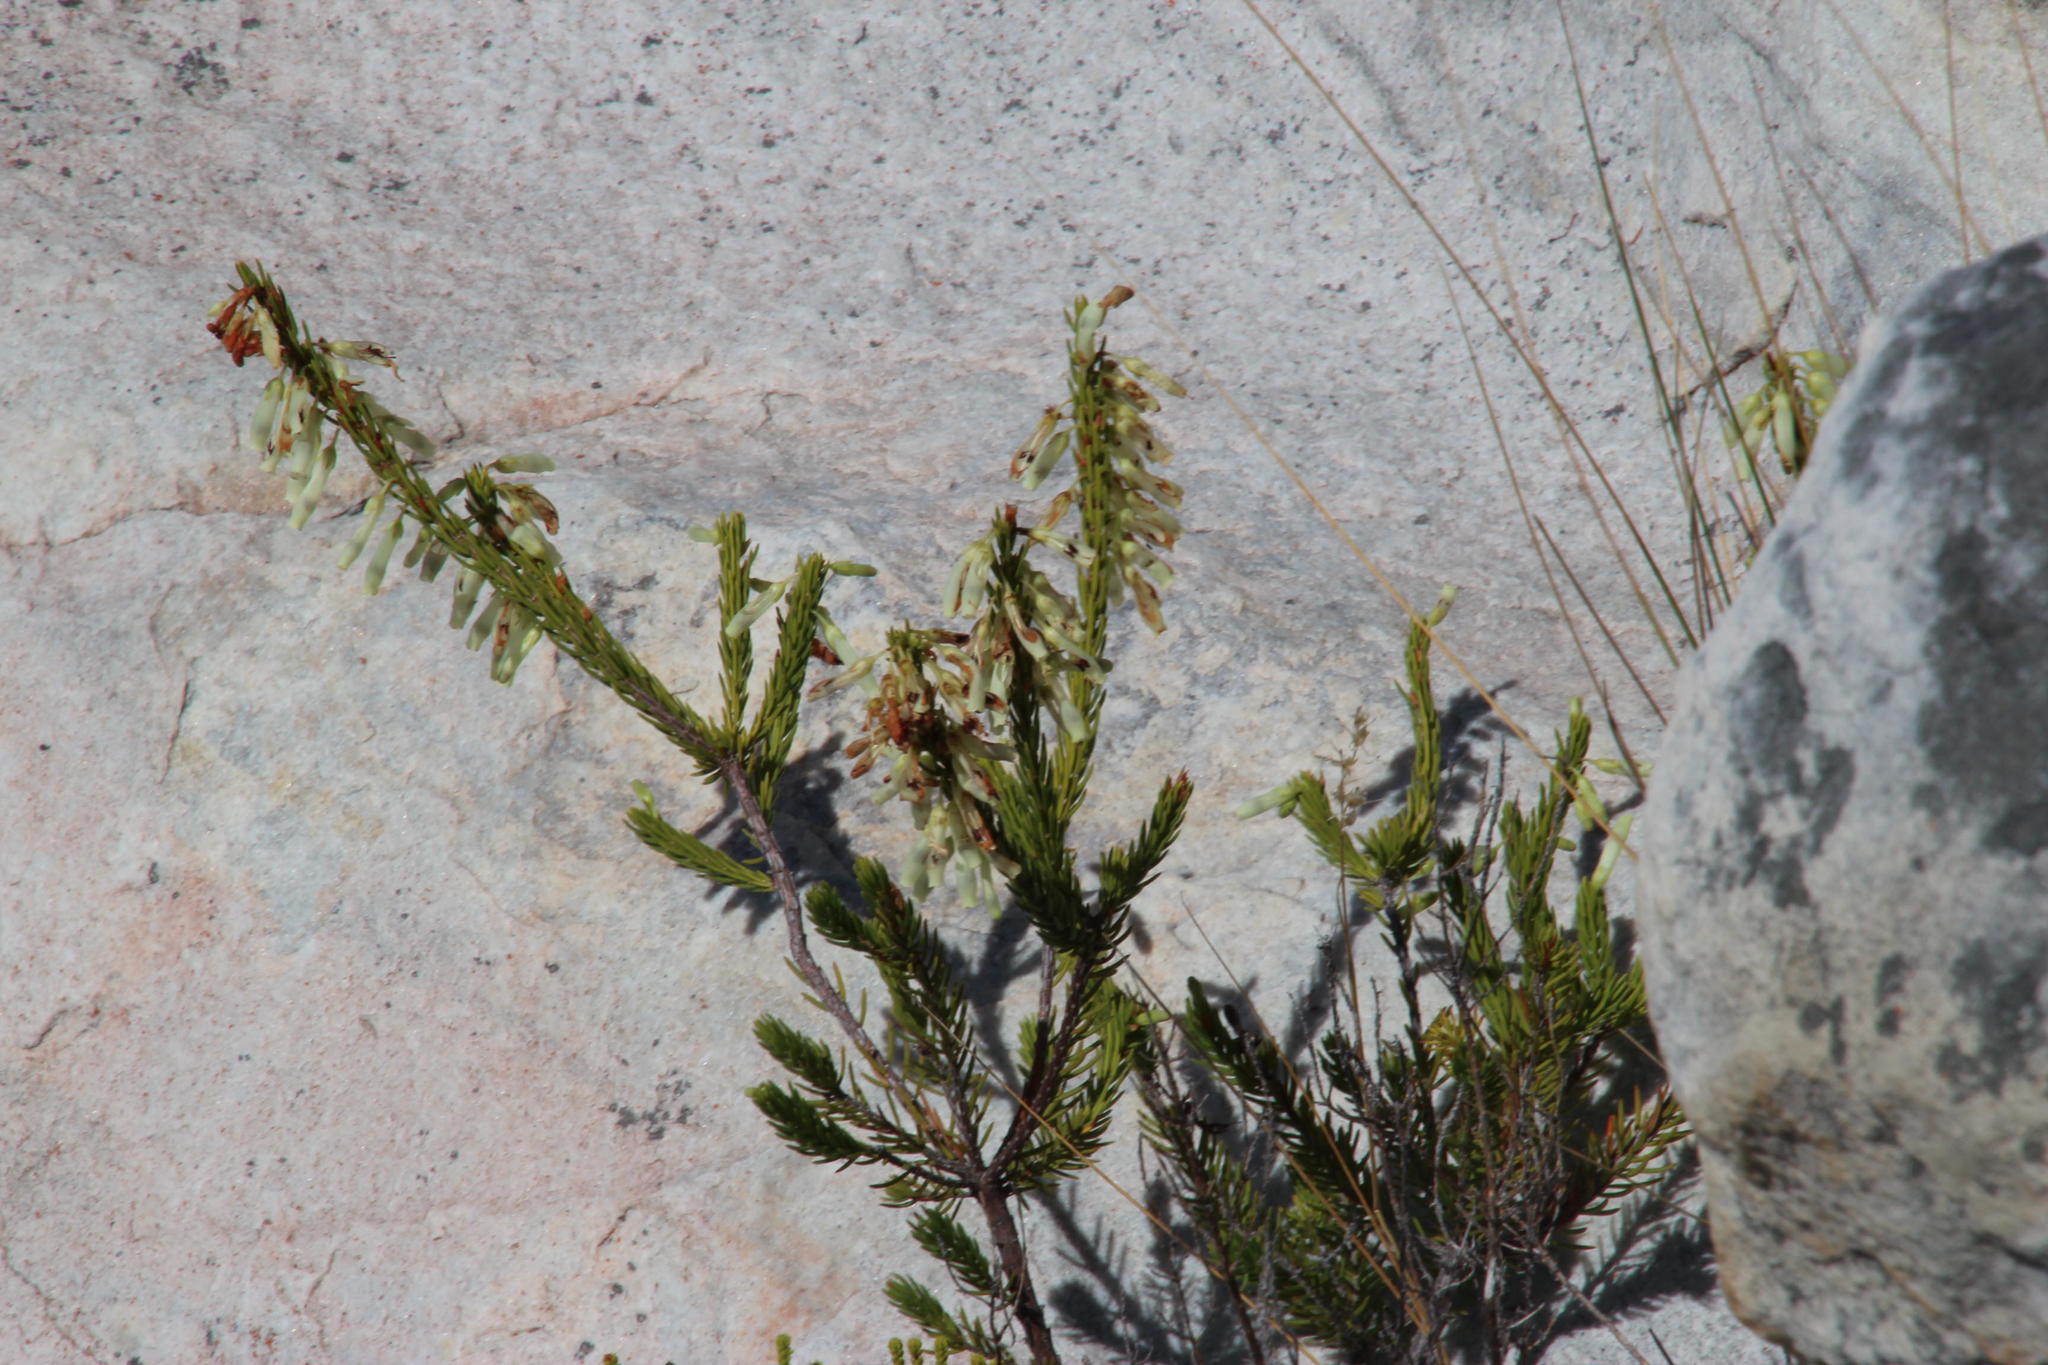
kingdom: Plantae
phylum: Tracheophyta
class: Magnoliopsida
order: Ericales
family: Ericaceae
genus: Erica
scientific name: Erica mammosa
